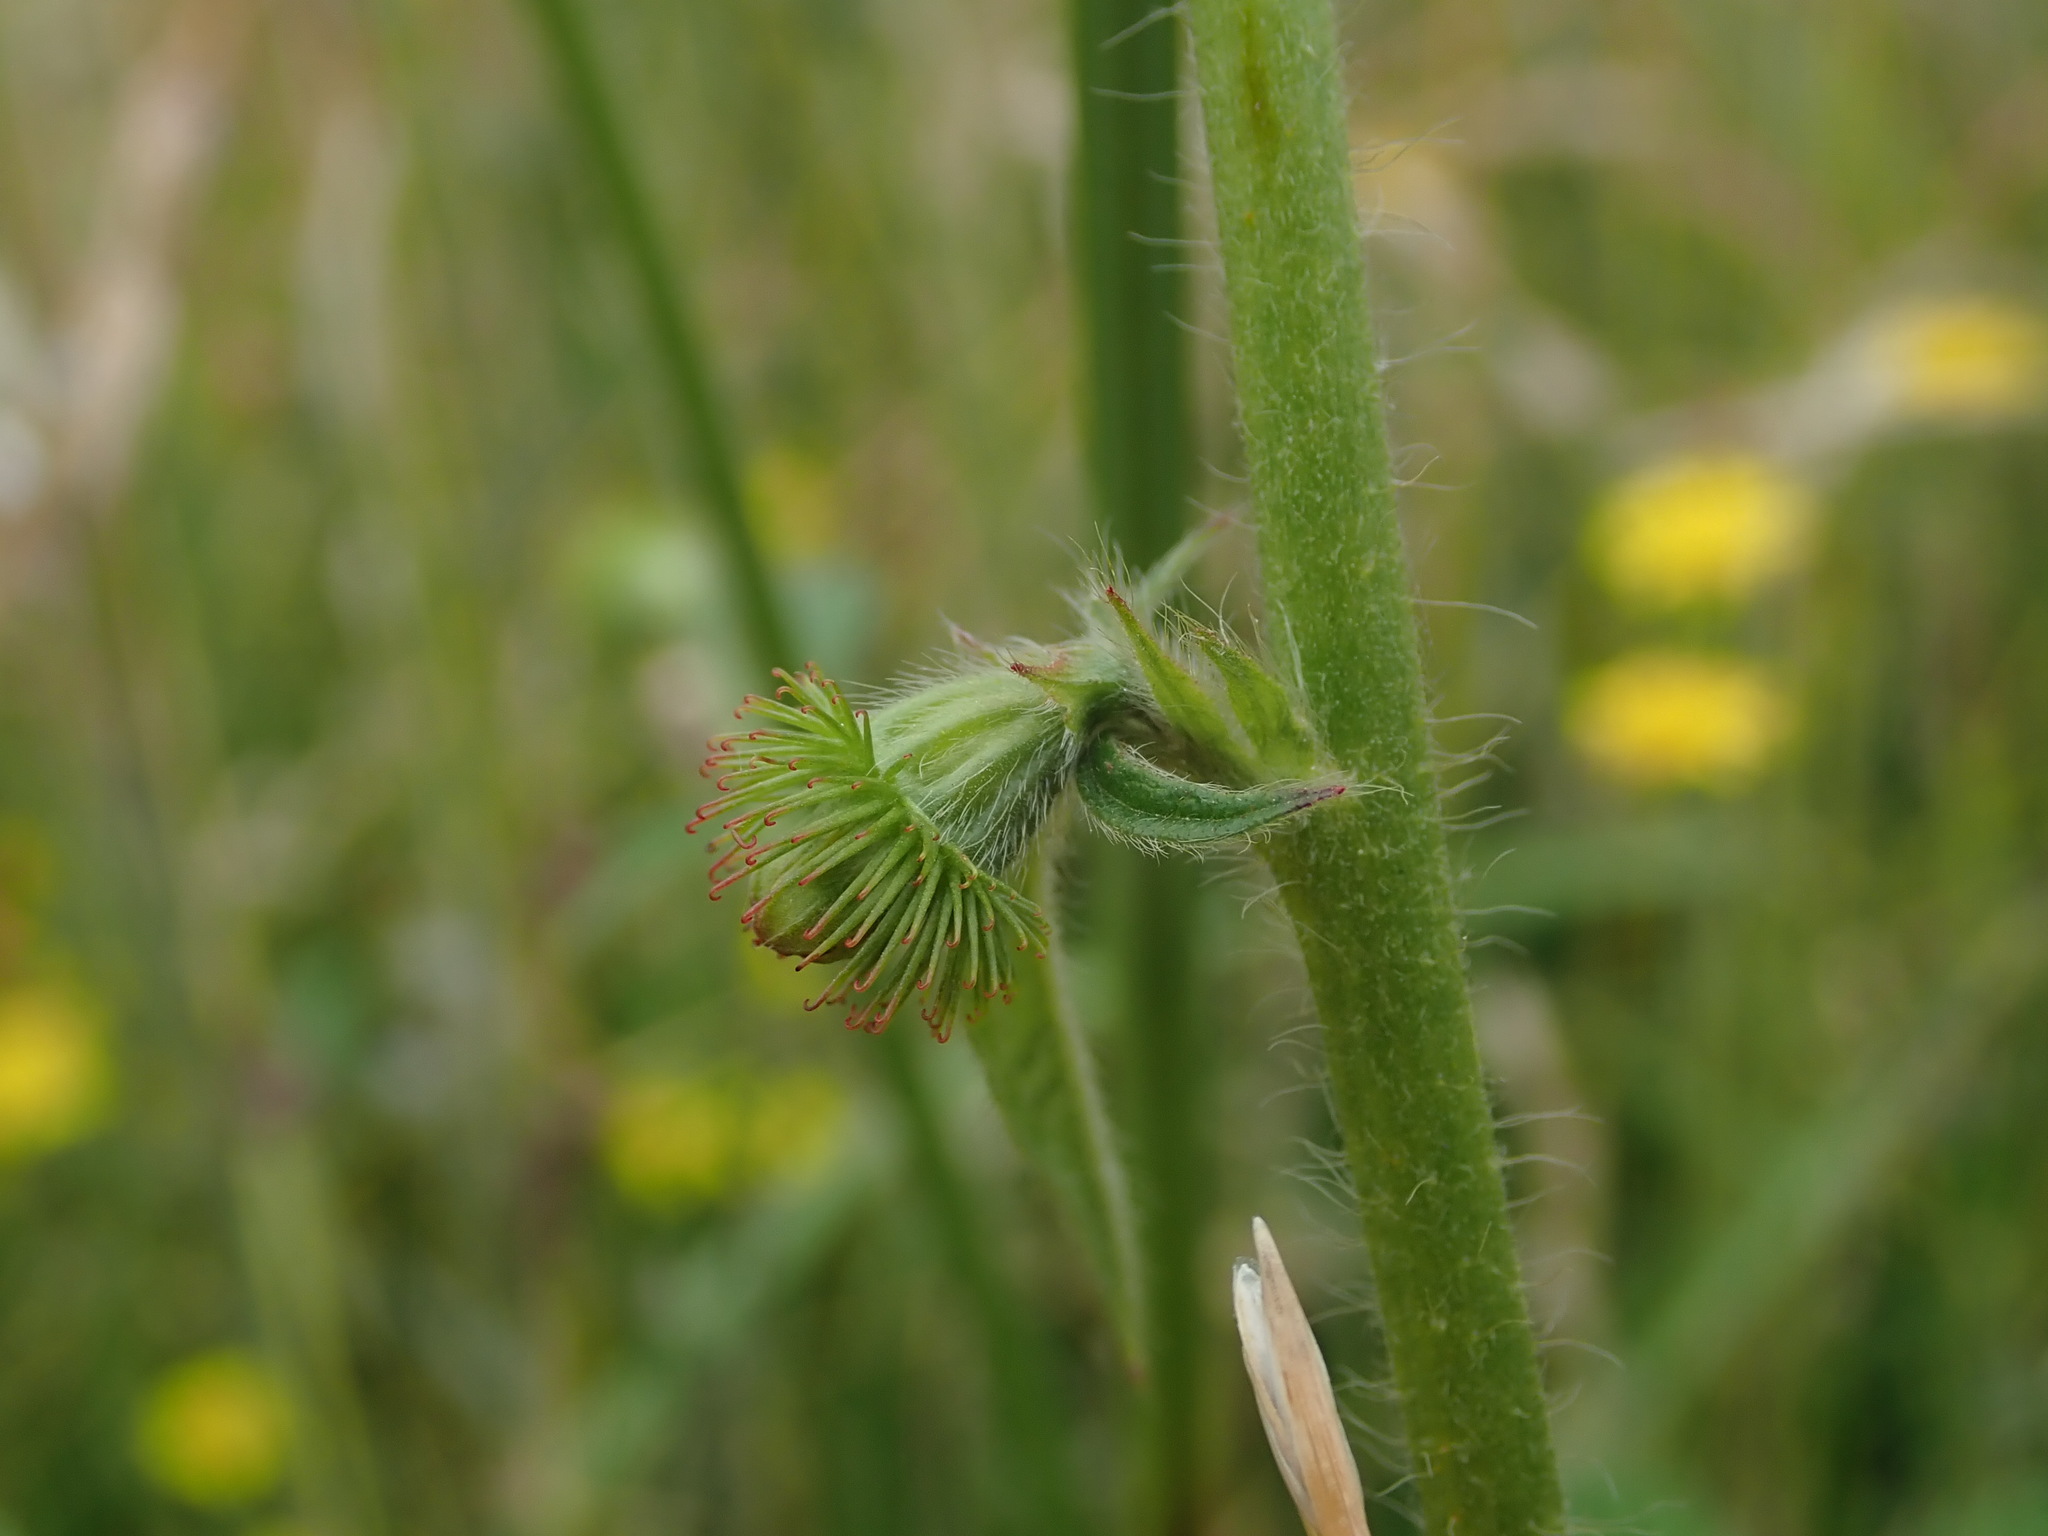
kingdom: Plantae
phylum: Tracheophyta
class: Magnoliopsida
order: Rosales
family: Rosaceae
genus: Agrimonia
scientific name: Agrimonia eupatoria
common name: Agrimony
